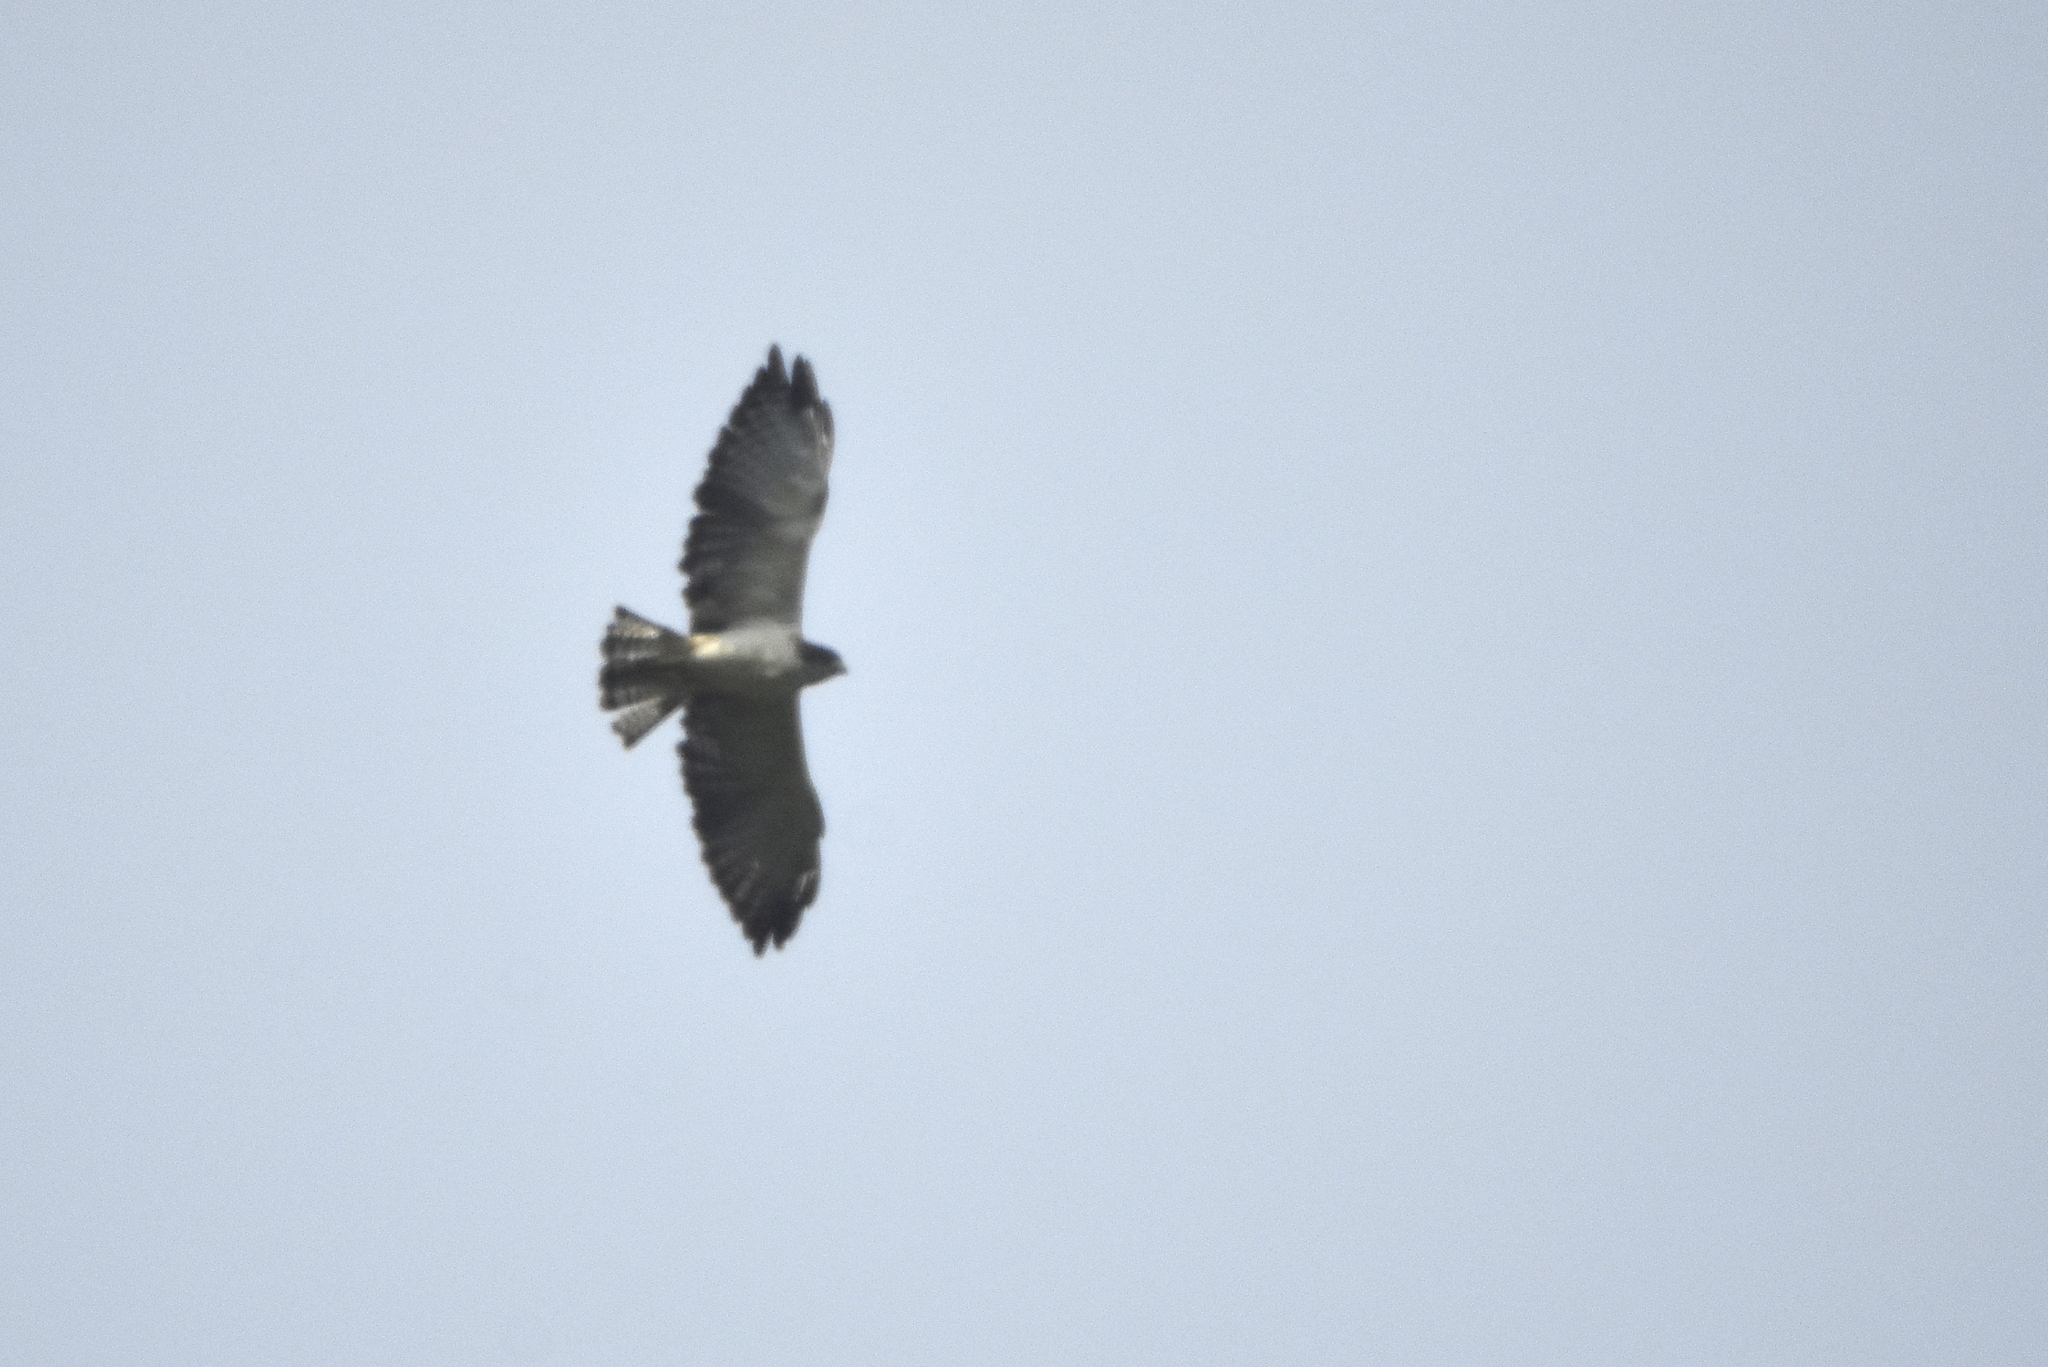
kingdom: Animalia
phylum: Chordata
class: Aves
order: Accipitriformes
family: Accipitridae
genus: Buteo
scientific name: Buteo brachyurus
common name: Short-tailed hawk
